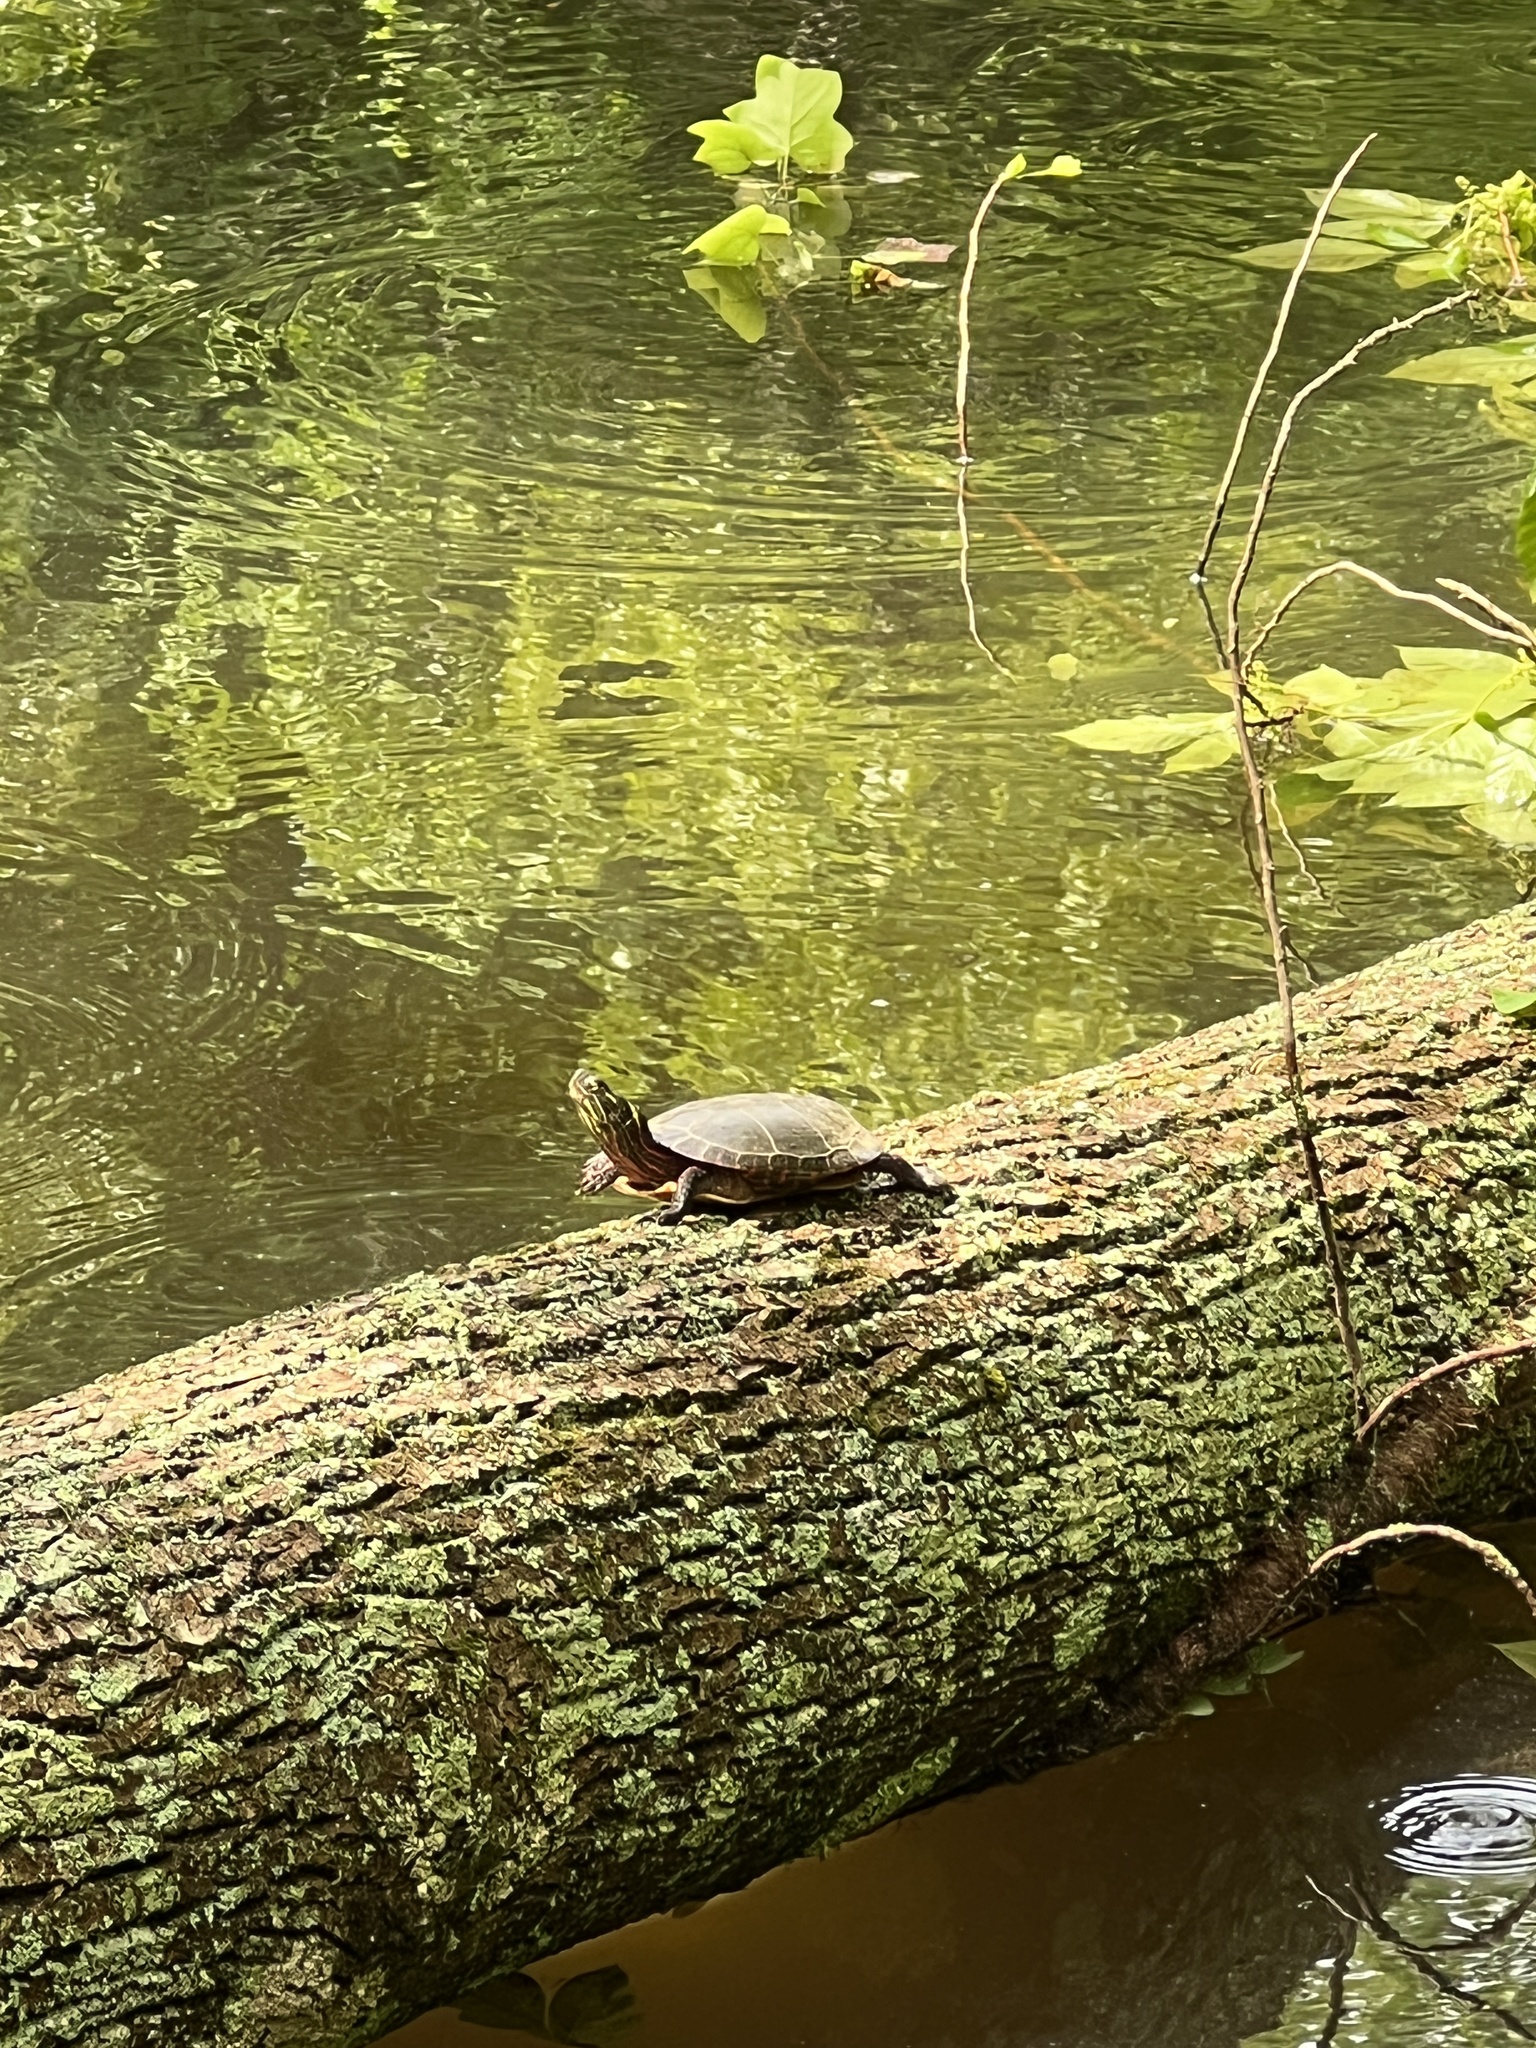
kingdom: Animalia
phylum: Chordata
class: Testudines
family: Emydidae
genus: Chrysemys
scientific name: Chrysemys picta
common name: Painted turtle
